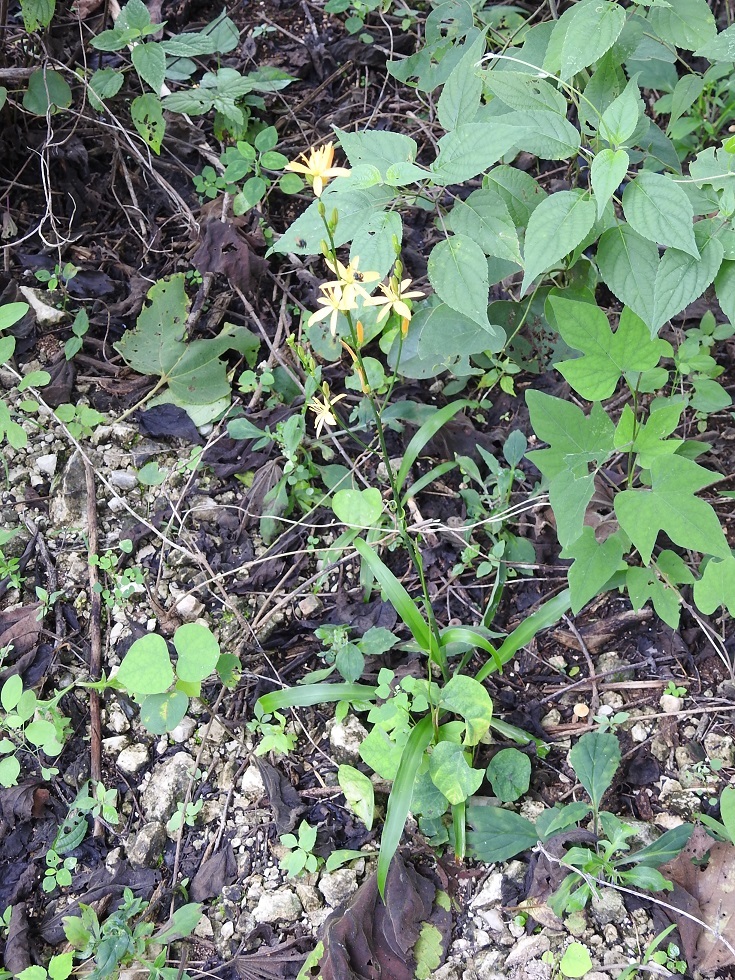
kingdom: Plantae
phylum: Tracheophyta
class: Liliopsida
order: Asparagales
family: Asparagaceae
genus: Echeandia
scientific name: Echeandia breedlovei
